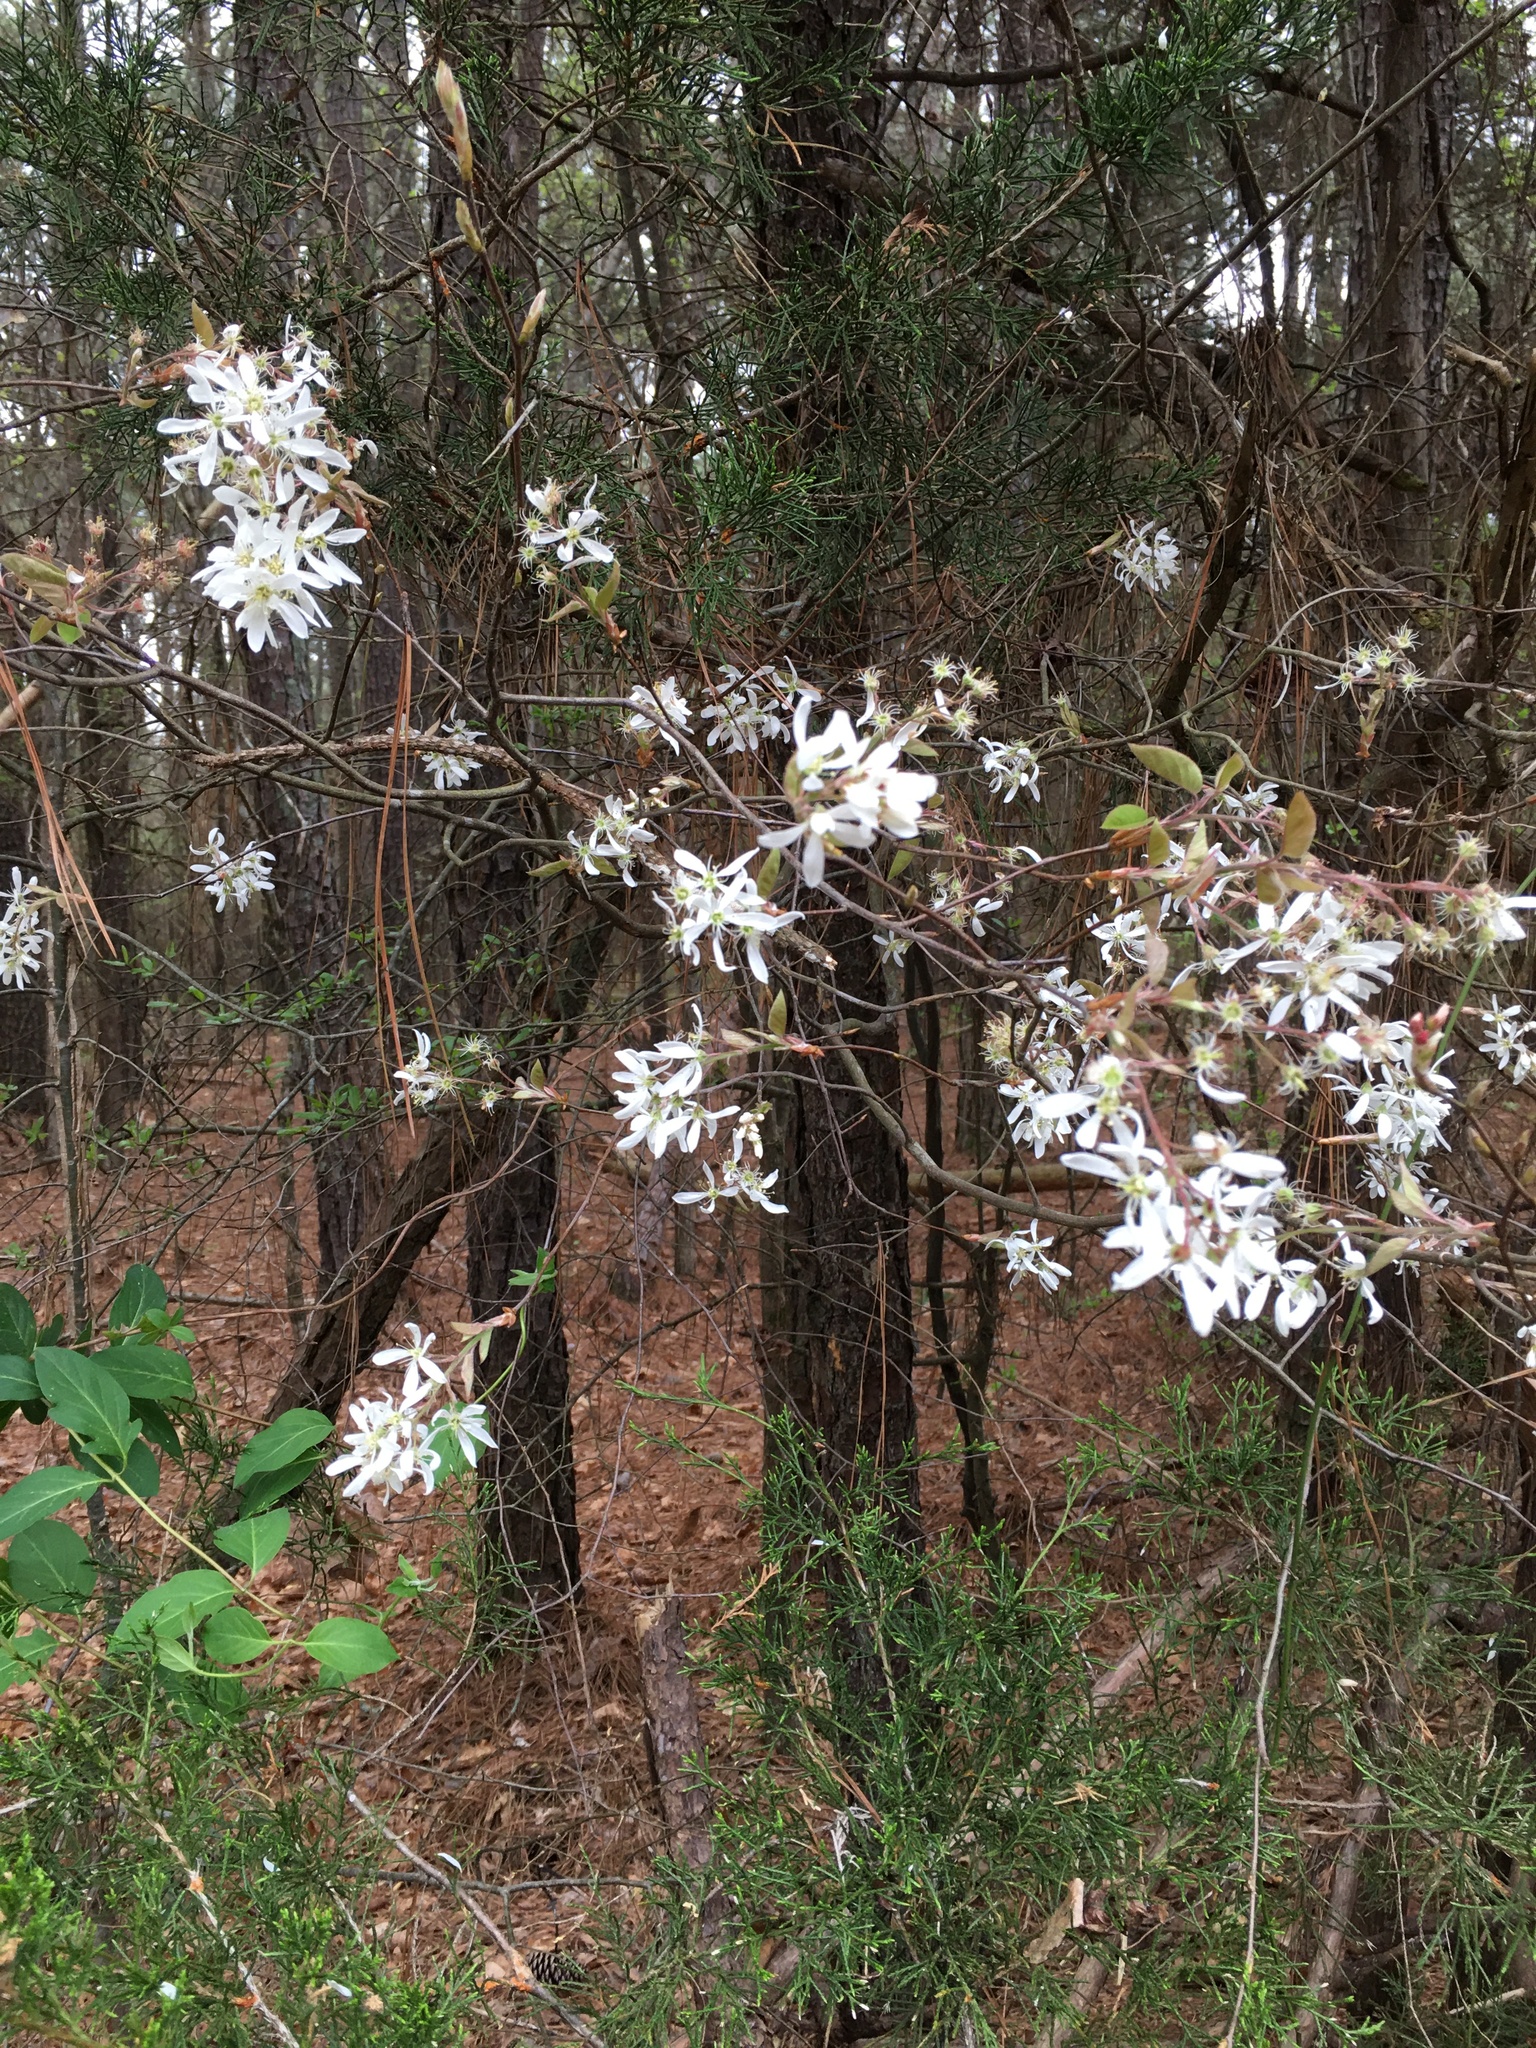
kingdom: Plantae
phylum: Tracheophyta
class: Magnoliopsida
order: Rosales
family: Rosaceae
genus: Amelanchier
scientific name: Amelanchier arborea
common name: Downy serviceberry
